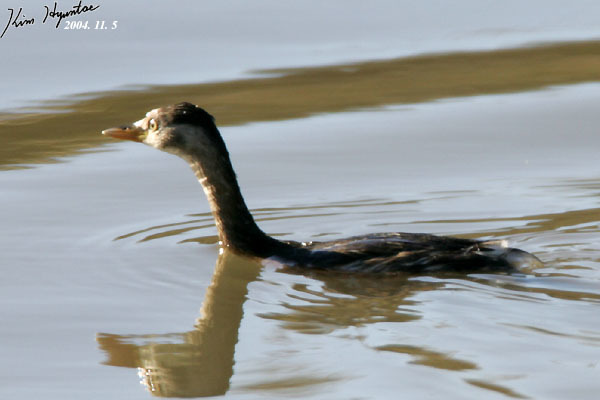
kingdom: Animalia
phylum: Chordata
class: Aves
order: Podicipediformes
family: Podicipedidae
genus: Tachybaptus
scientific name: Tachybaptus ruficollis
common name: Little grebe
